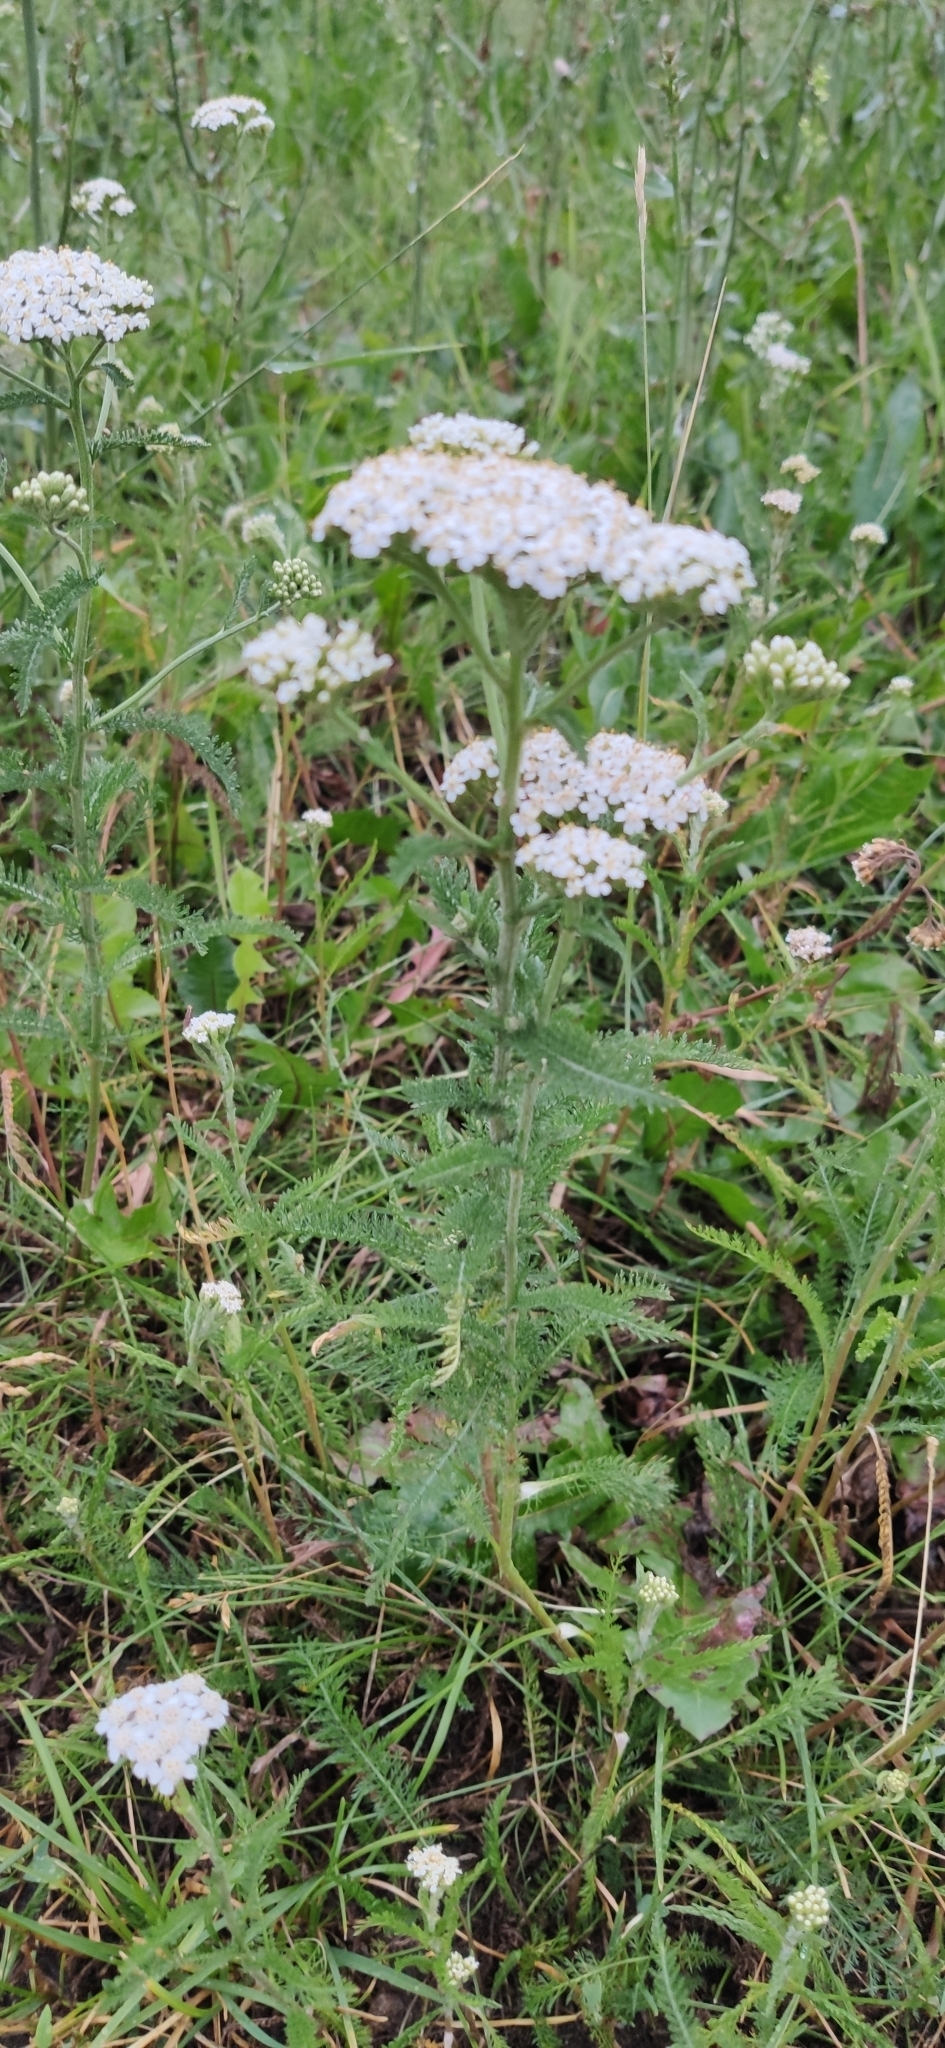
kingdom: Plantae
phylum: Tracheophyta
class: Magnoliopsida
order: Asterales
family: Asteraceae
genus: Achillea
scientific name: Achillea millefolium
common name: Yarrow
